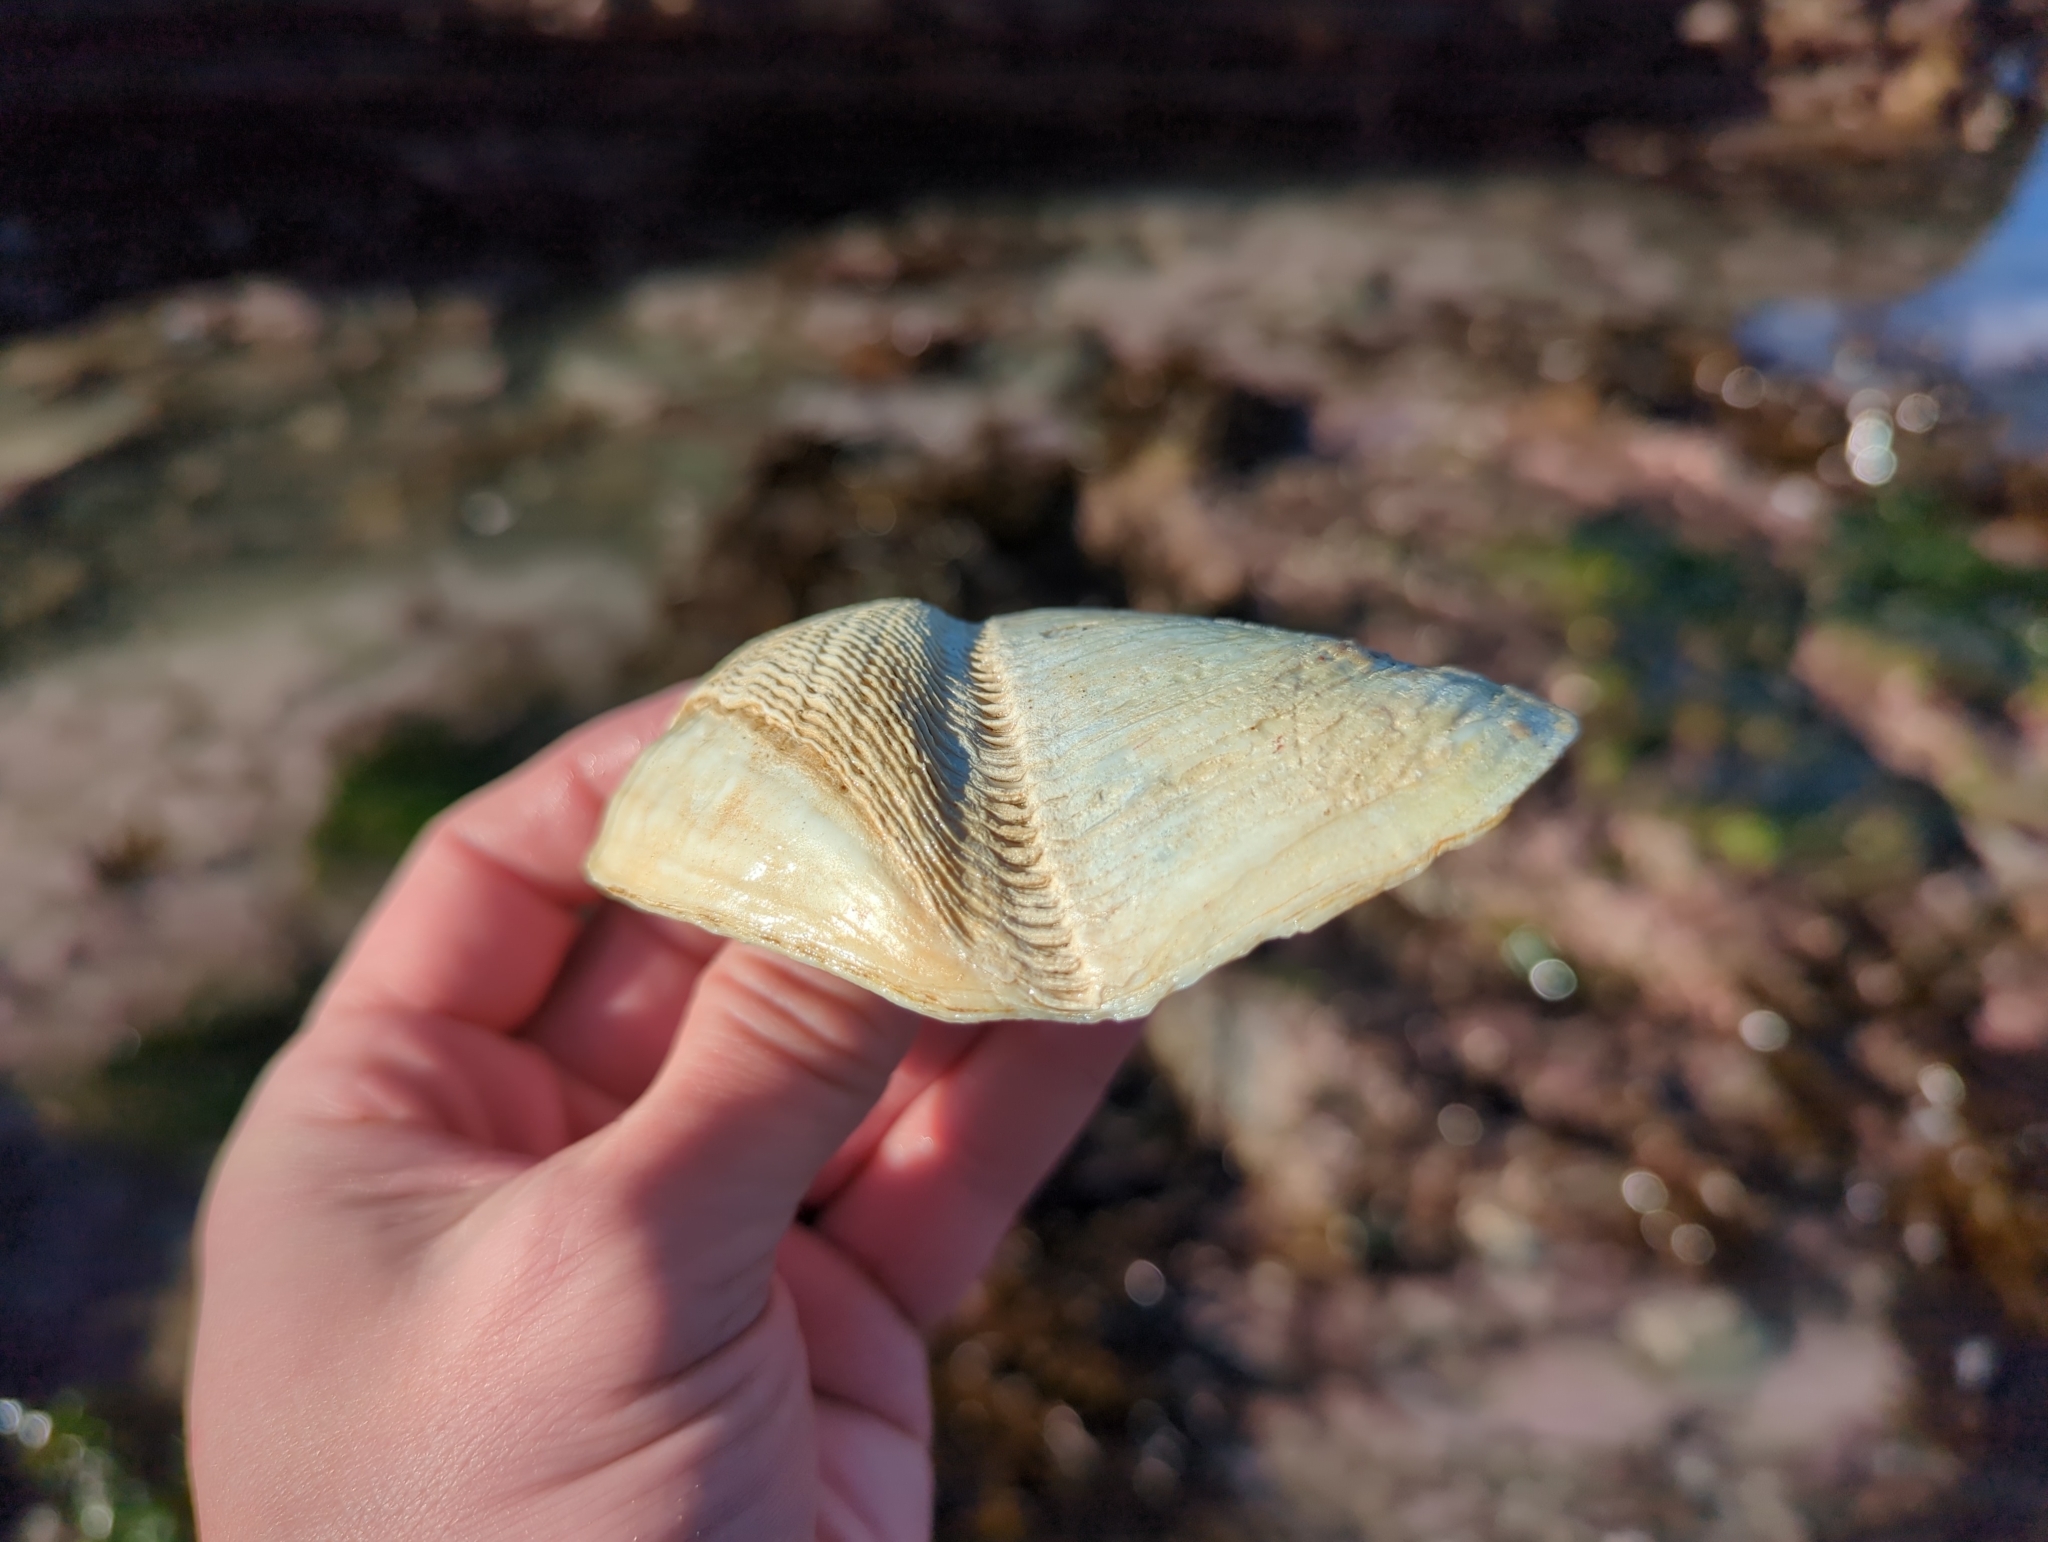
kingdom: Animalia
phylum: Mollusca
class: Bivalvia
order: Myida
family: Pholadidae
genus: Chaceia
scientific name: Chaceia ovoidea
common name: Wartneck piddock
